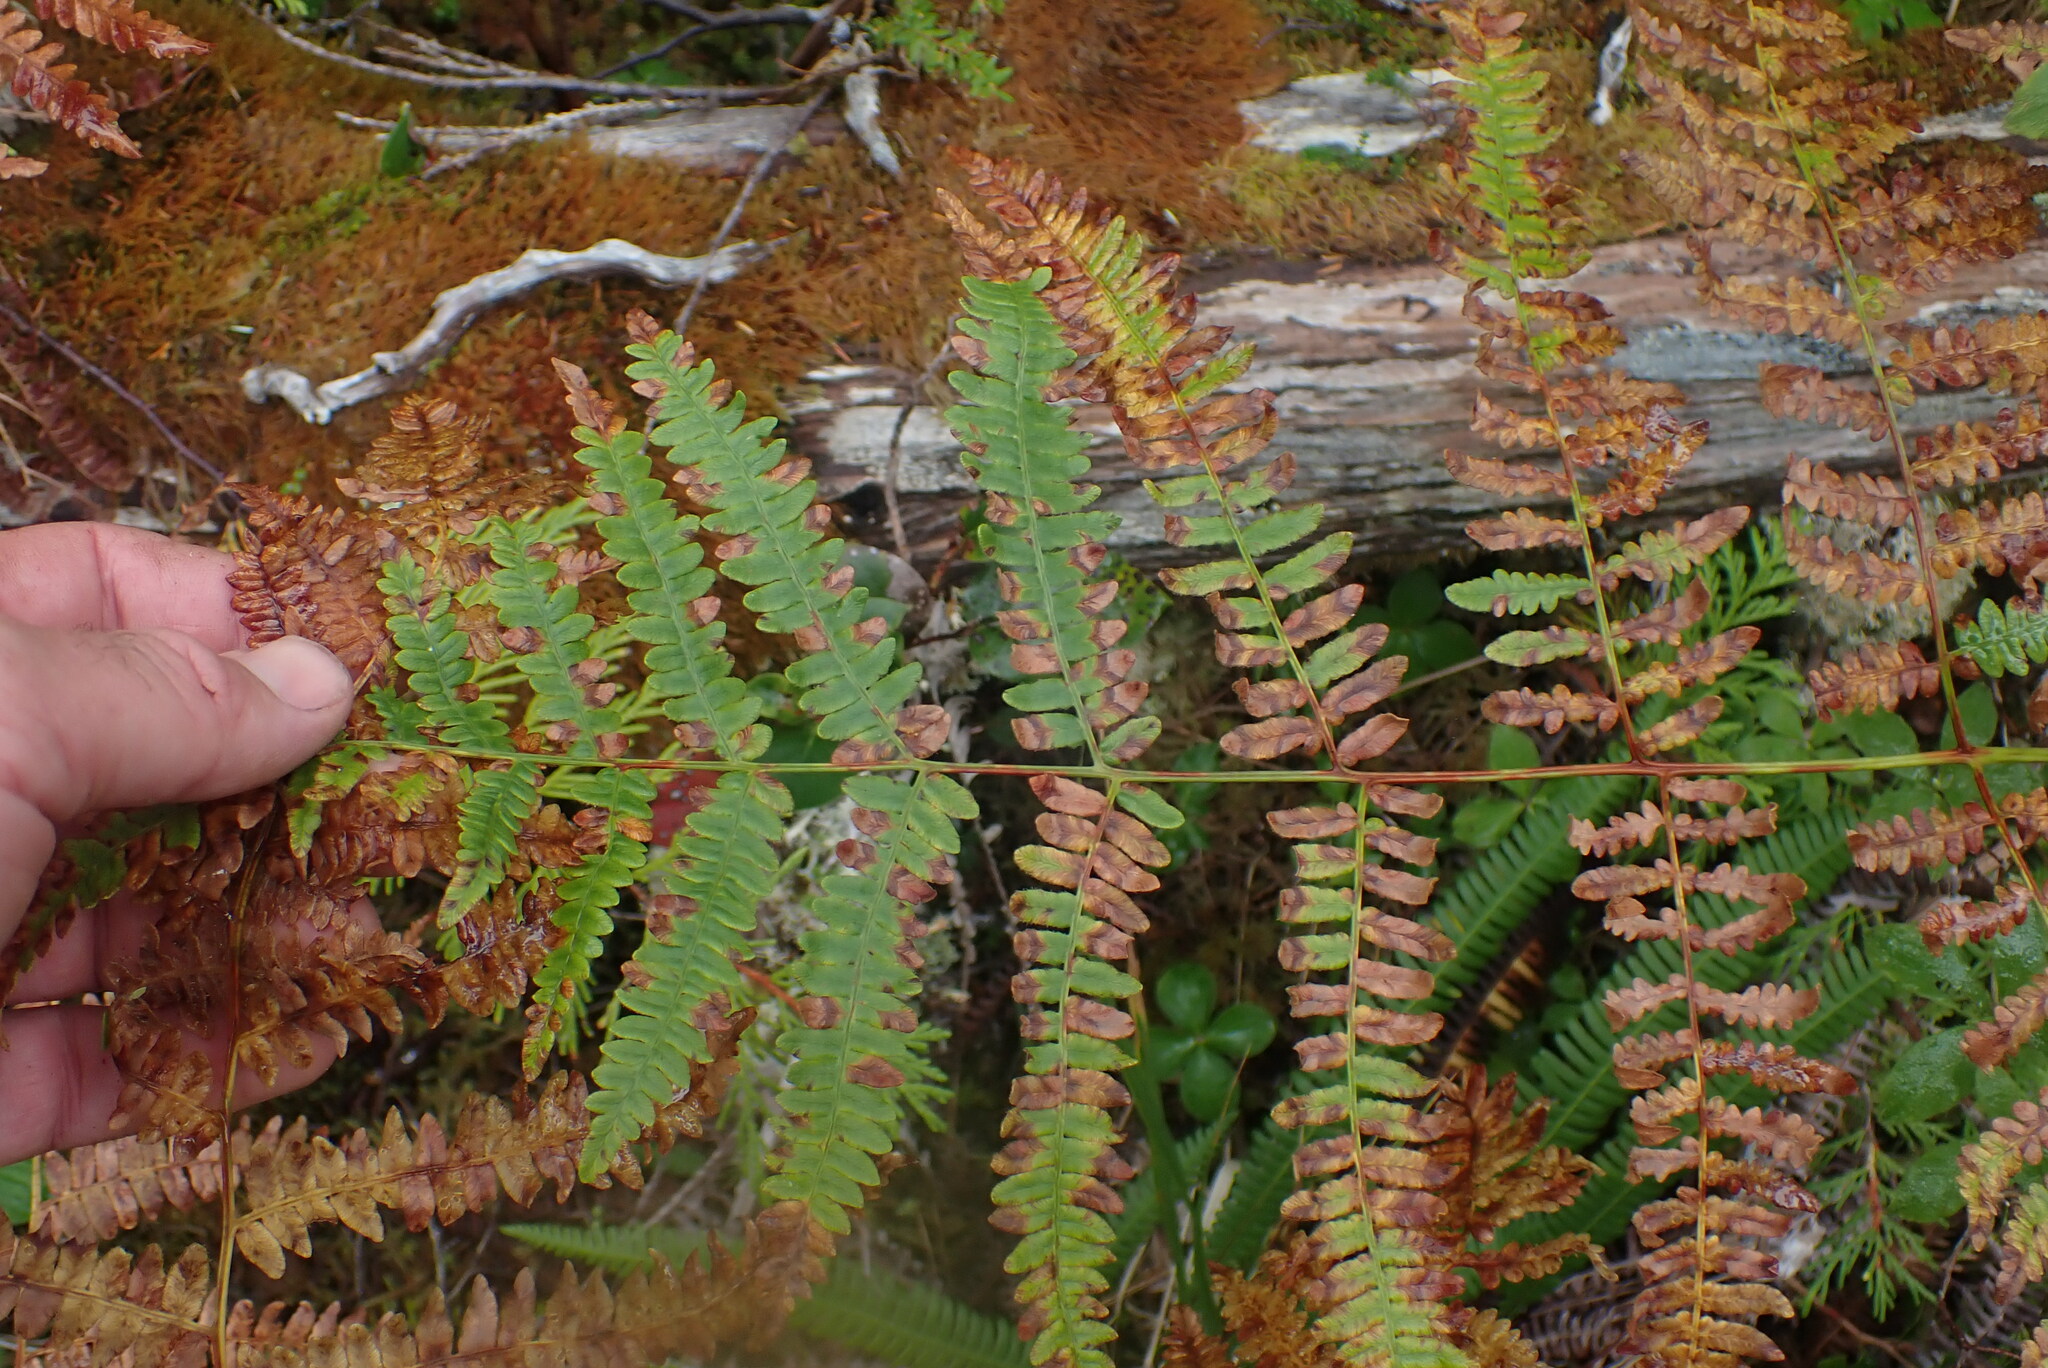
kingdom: Plantae
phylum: Tracheophyta
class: Polypodiopsida
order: Polypodiales
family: Dennstaedtiaceae
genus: Pteridium
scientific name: Pteridium aquilinum
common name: Bracken
